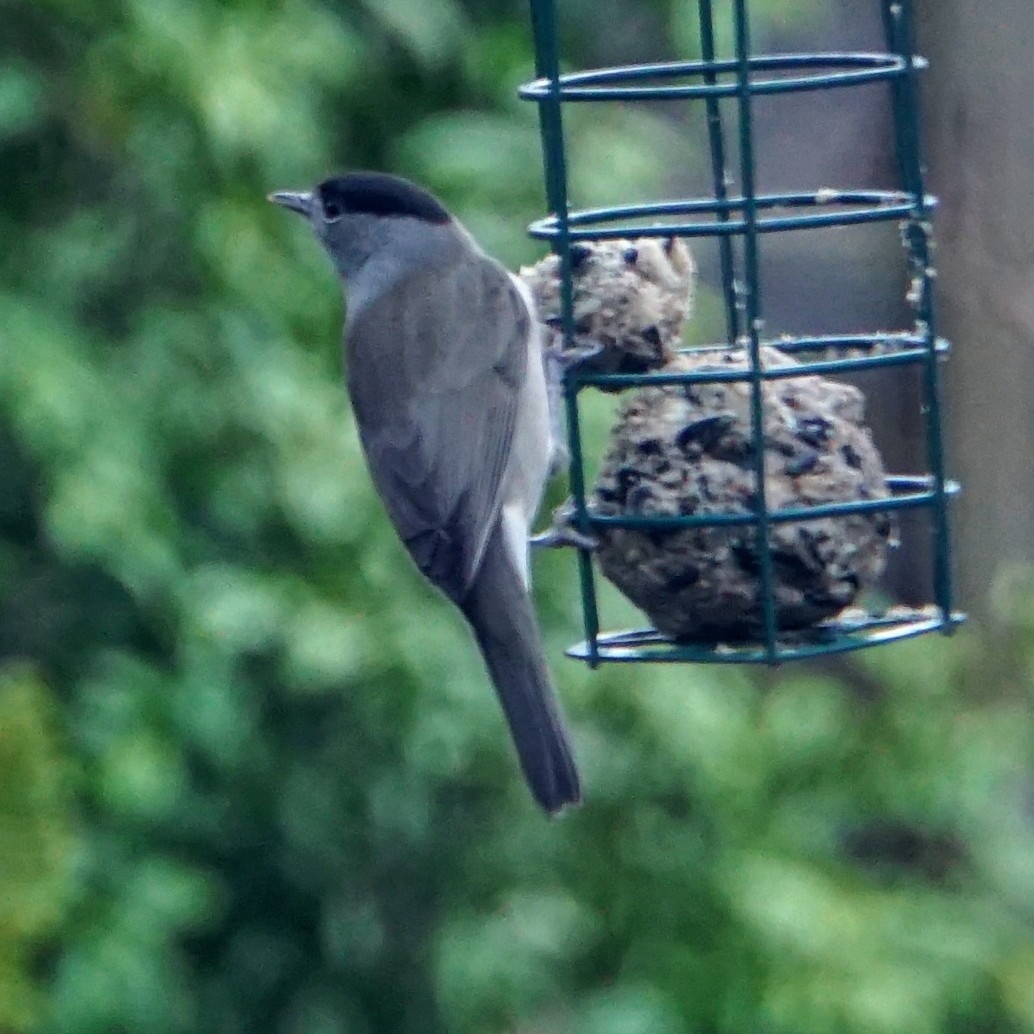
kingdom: Animalia
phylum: Chordata
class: Aves
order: Passeriformes
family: Sylviidae
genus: Sylvia
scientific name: Sylvia atricapilla
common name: Eurasian blackcap
